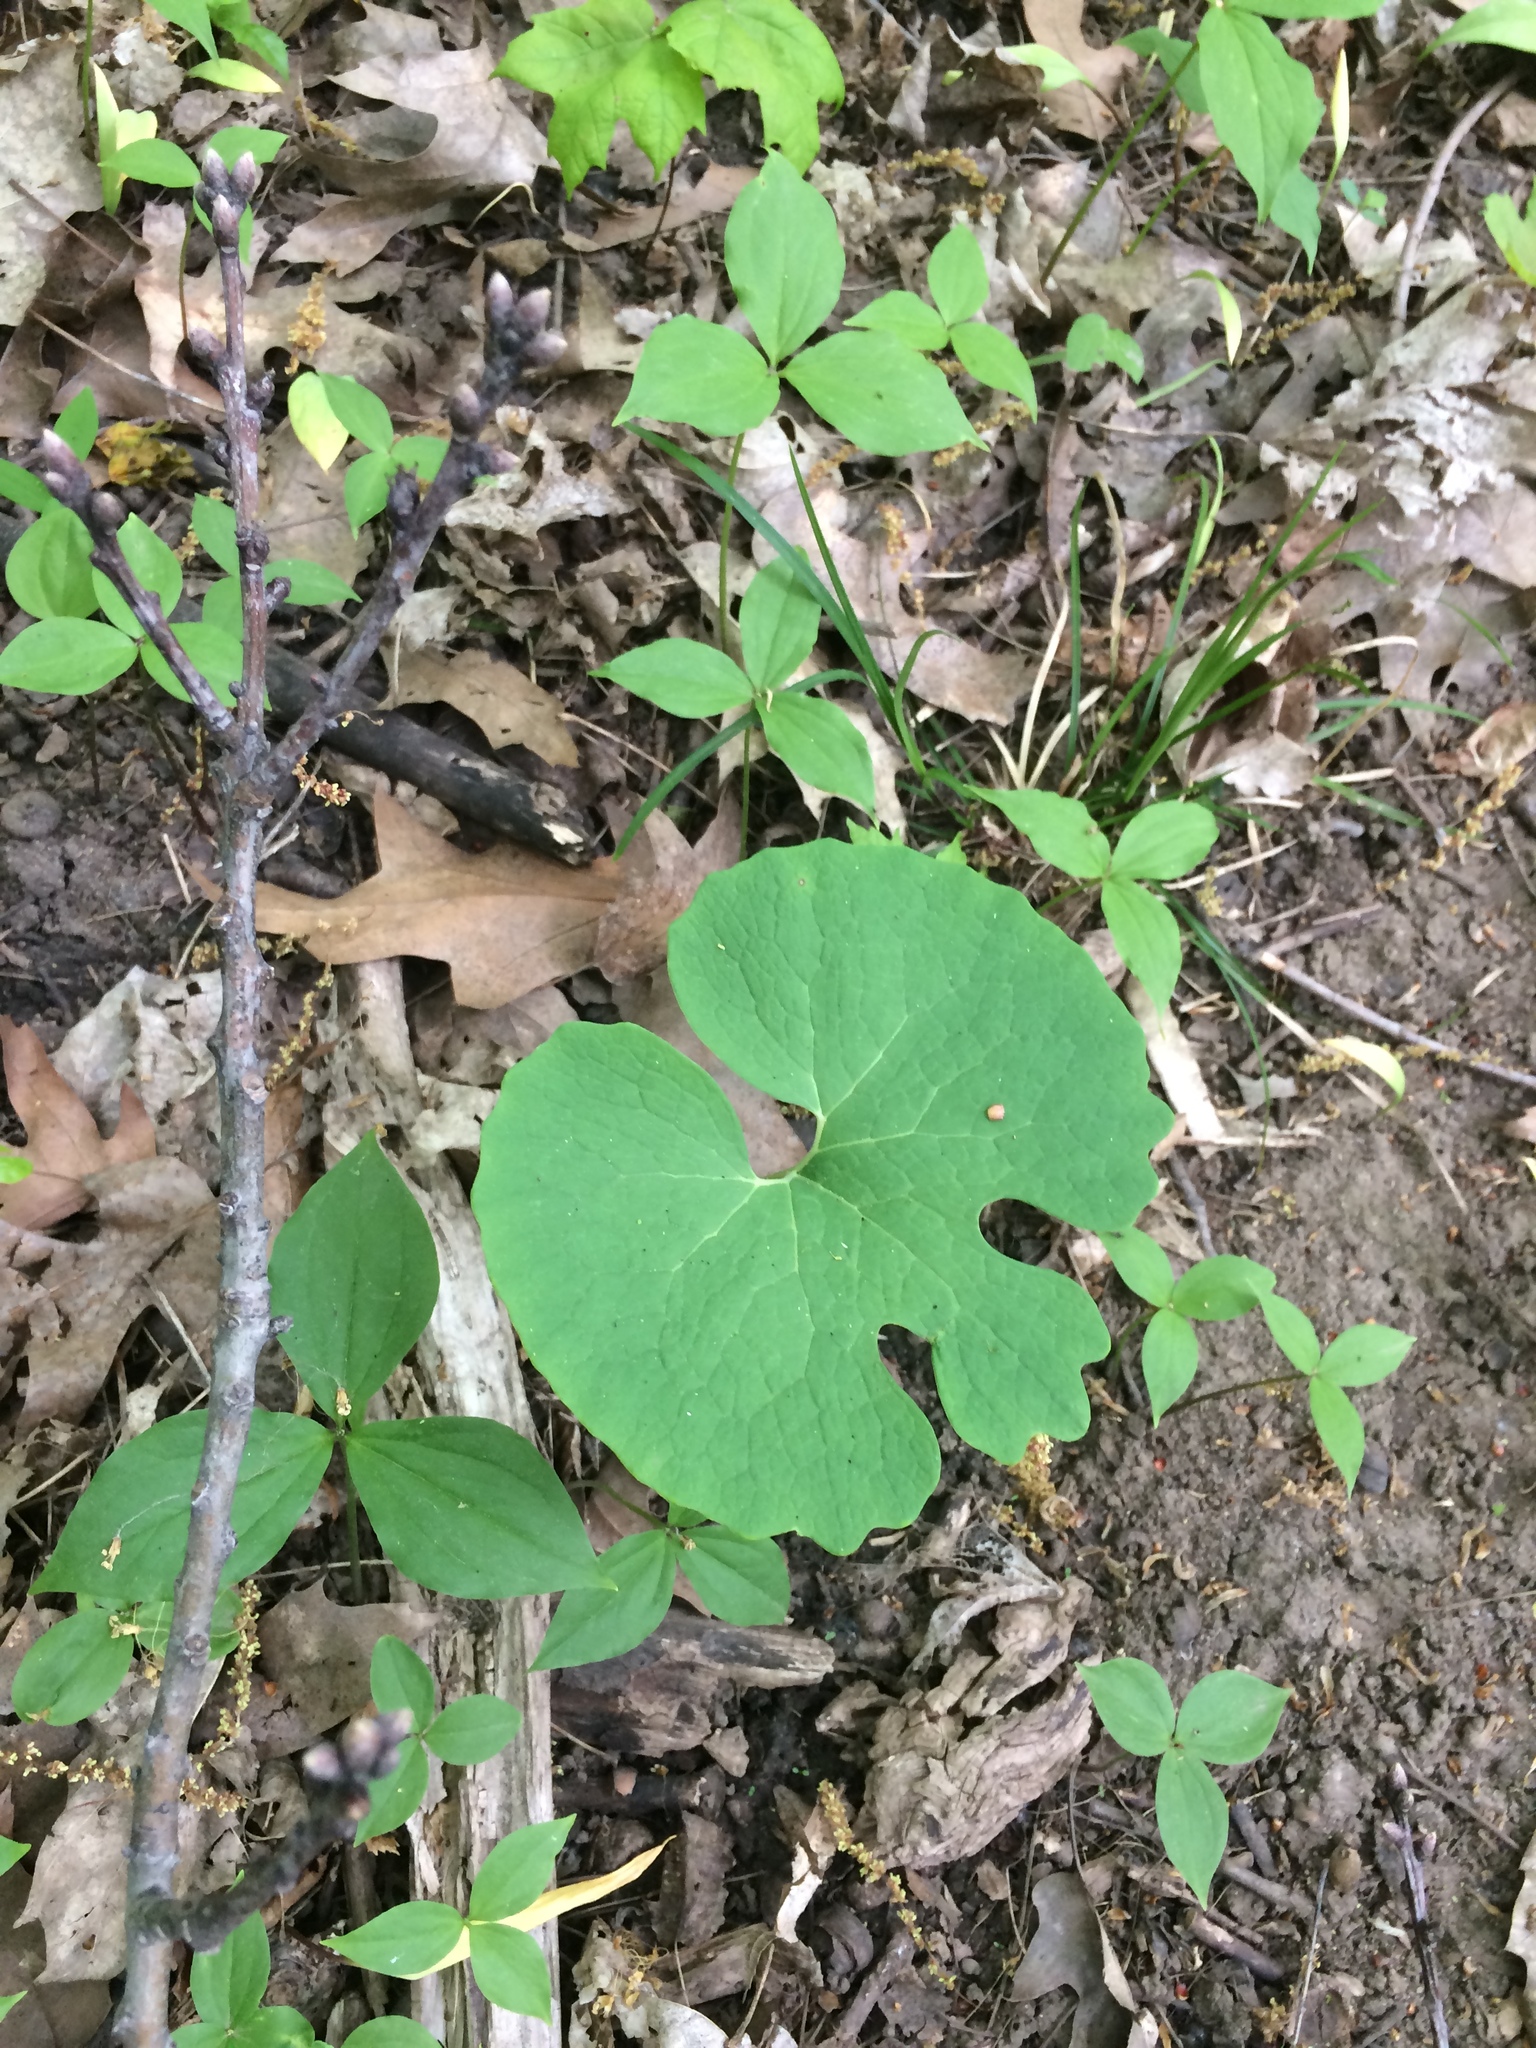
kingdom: Plantae
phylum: Tracheophyta
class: Magnoliopsida
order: Ranunculales
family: Papaveraceae
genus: Sanguinaria
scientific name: Sanguinaria canadensis
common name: Bloodroot
